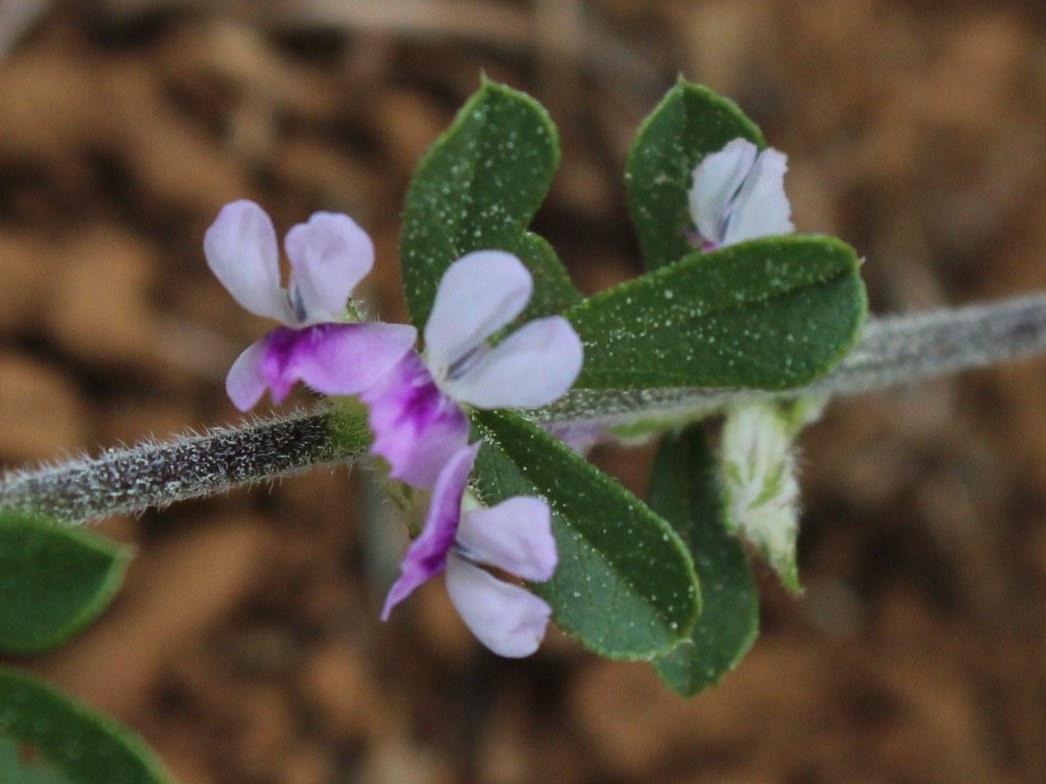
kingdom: Plantae
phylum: Tracheophyta
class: Magnoliopsida
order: Fabales
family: Fabaceae
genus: Psoralea
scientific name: Psoralea
